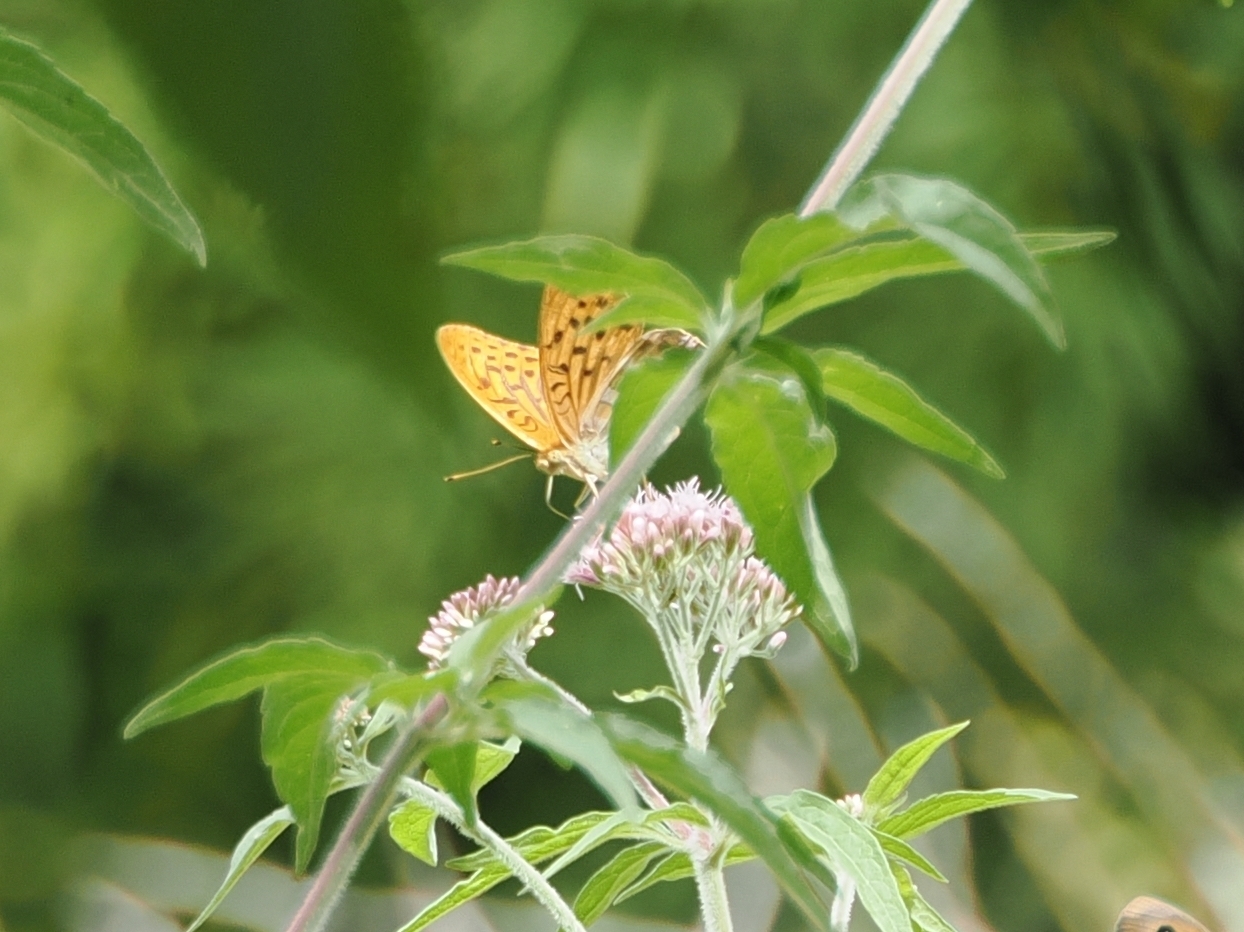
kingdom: Animalia
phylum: Arthropoda
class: Insecta
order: Lepidoptera
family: Nymphalidae
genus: Argynnis
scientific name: Argynnis paphia
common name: Silver-washed fritillary
